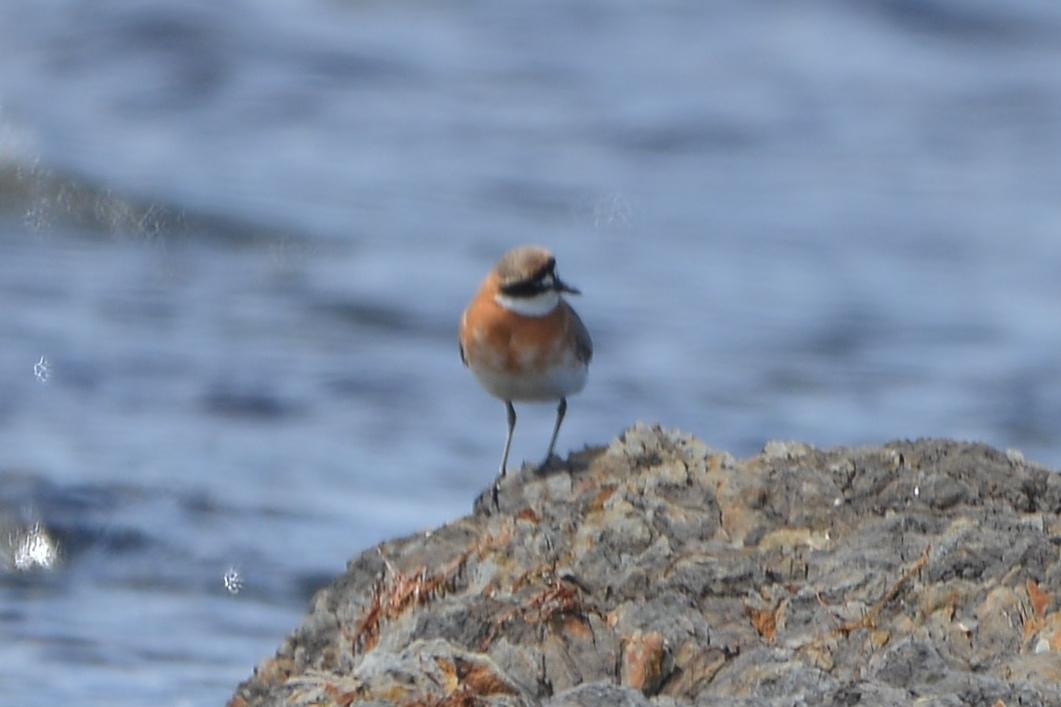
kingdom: Animalia
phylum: Chordata
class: Aves
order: Charadriiformes
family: Charadriidae
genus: Anarhynchus
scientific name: Anarhynchus
